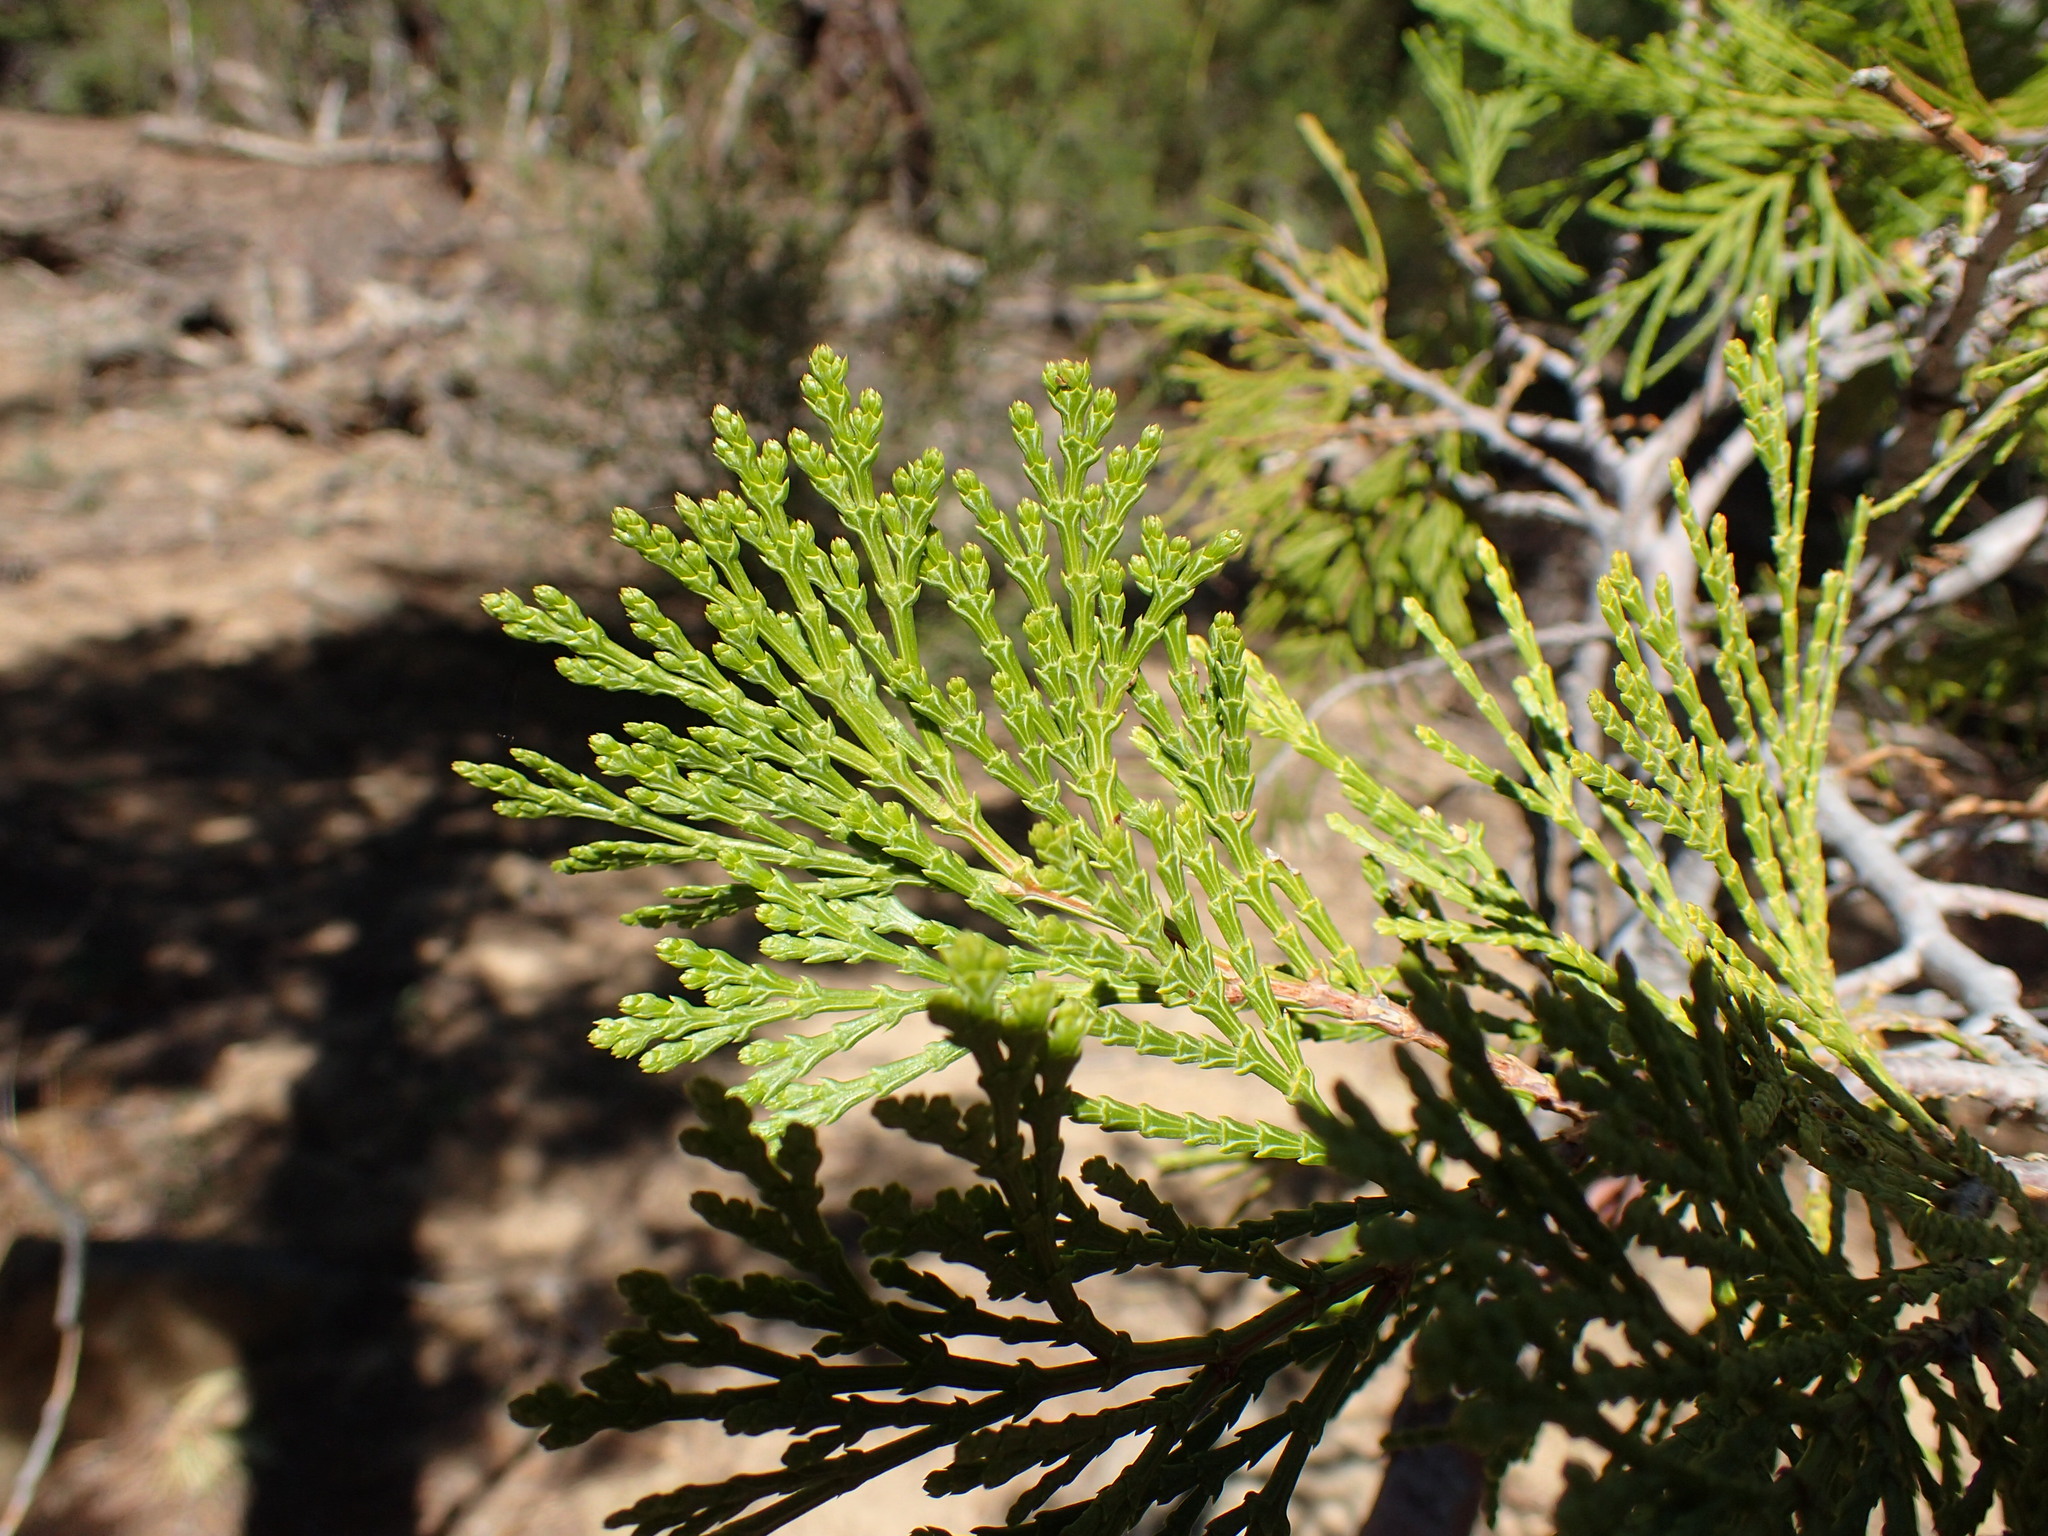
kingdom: Plantae
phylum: Tracheophyta
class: Pinopsida
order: Pinales
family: Cupressaceae
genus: Calocedrus
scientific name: Calocedrus decurrens
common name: Californian incense-cedar
